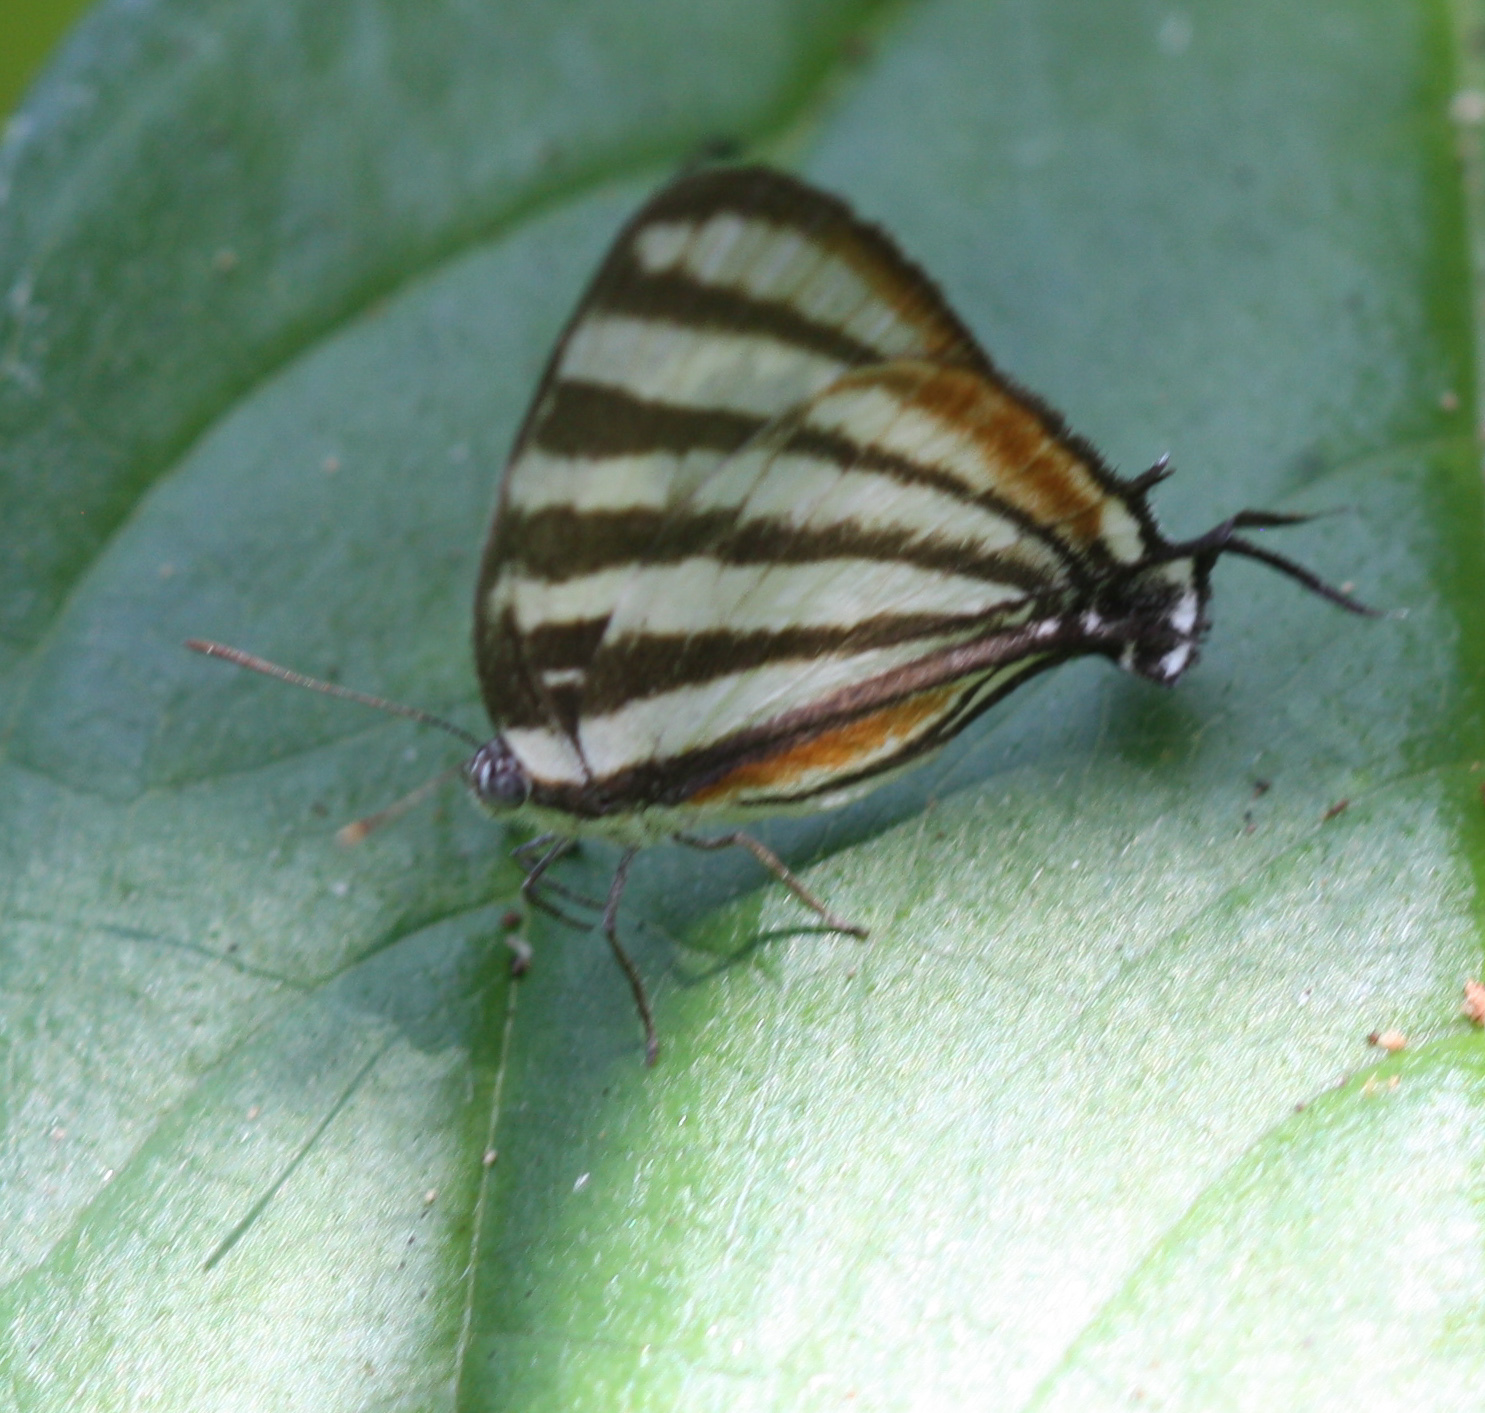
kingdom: Animalia
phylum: Arthropoda
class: Insecta
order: Lepidoptera
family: Lycaenidae
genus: Arawacus
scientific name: Arawacus lincoides
